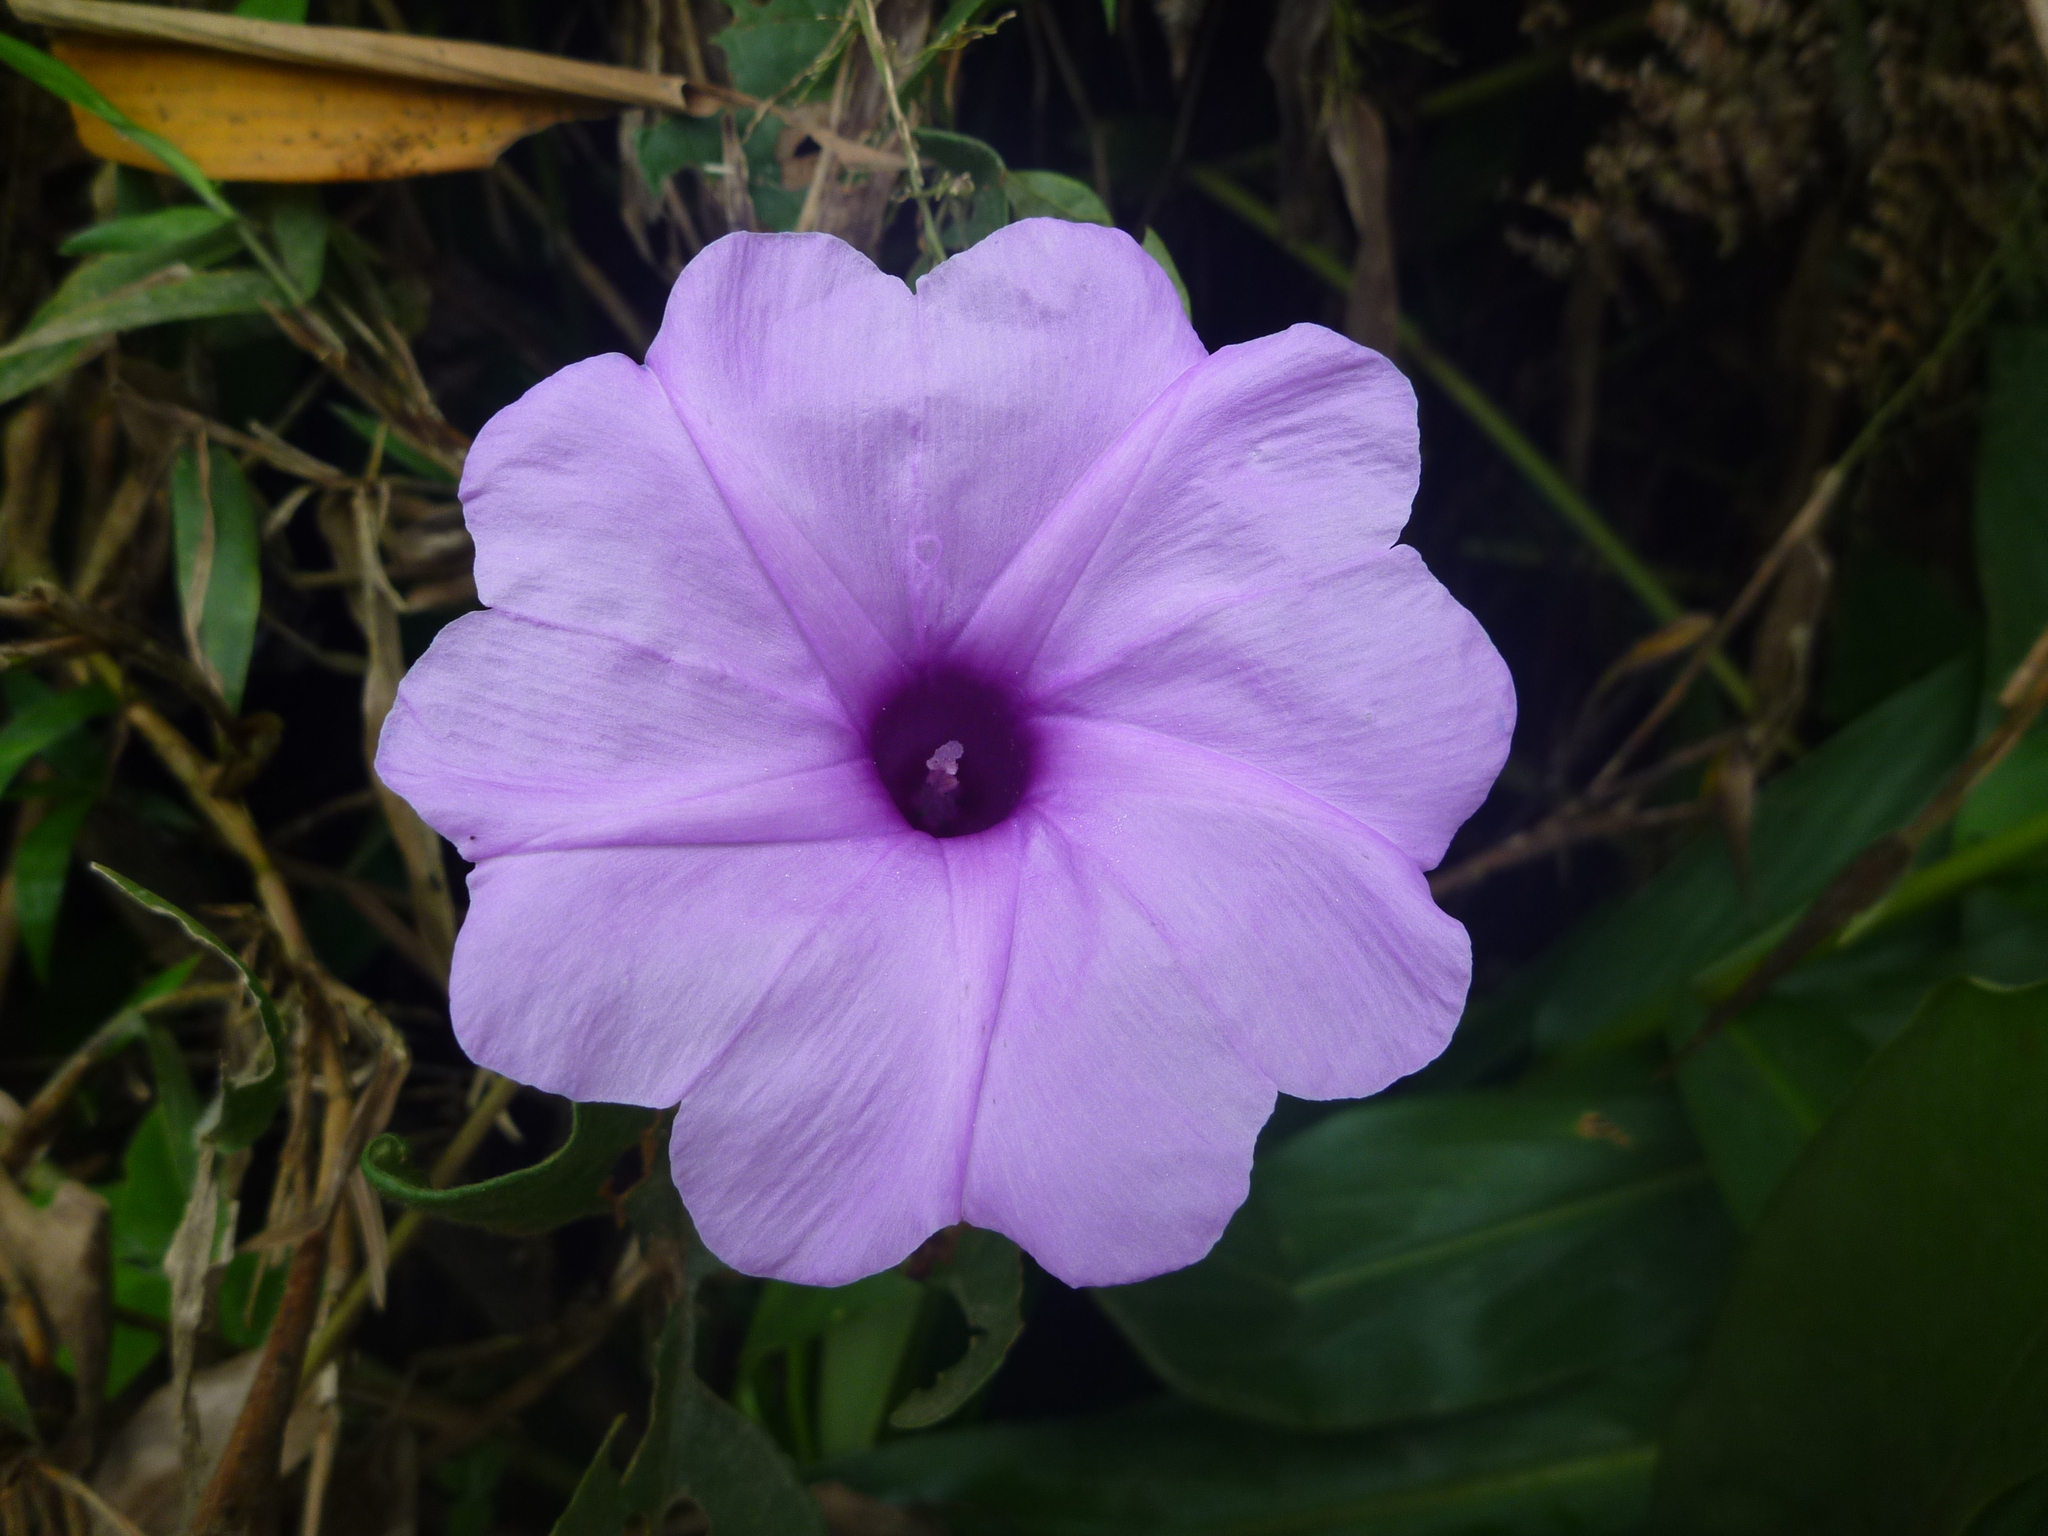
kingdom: Plantae
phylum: Tracheophyta
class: Magnoliopsida
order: Solanales
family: Convolvulaceae
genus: Ipomoea
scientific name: Ipomoea cairica
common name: Mile a minute vine
